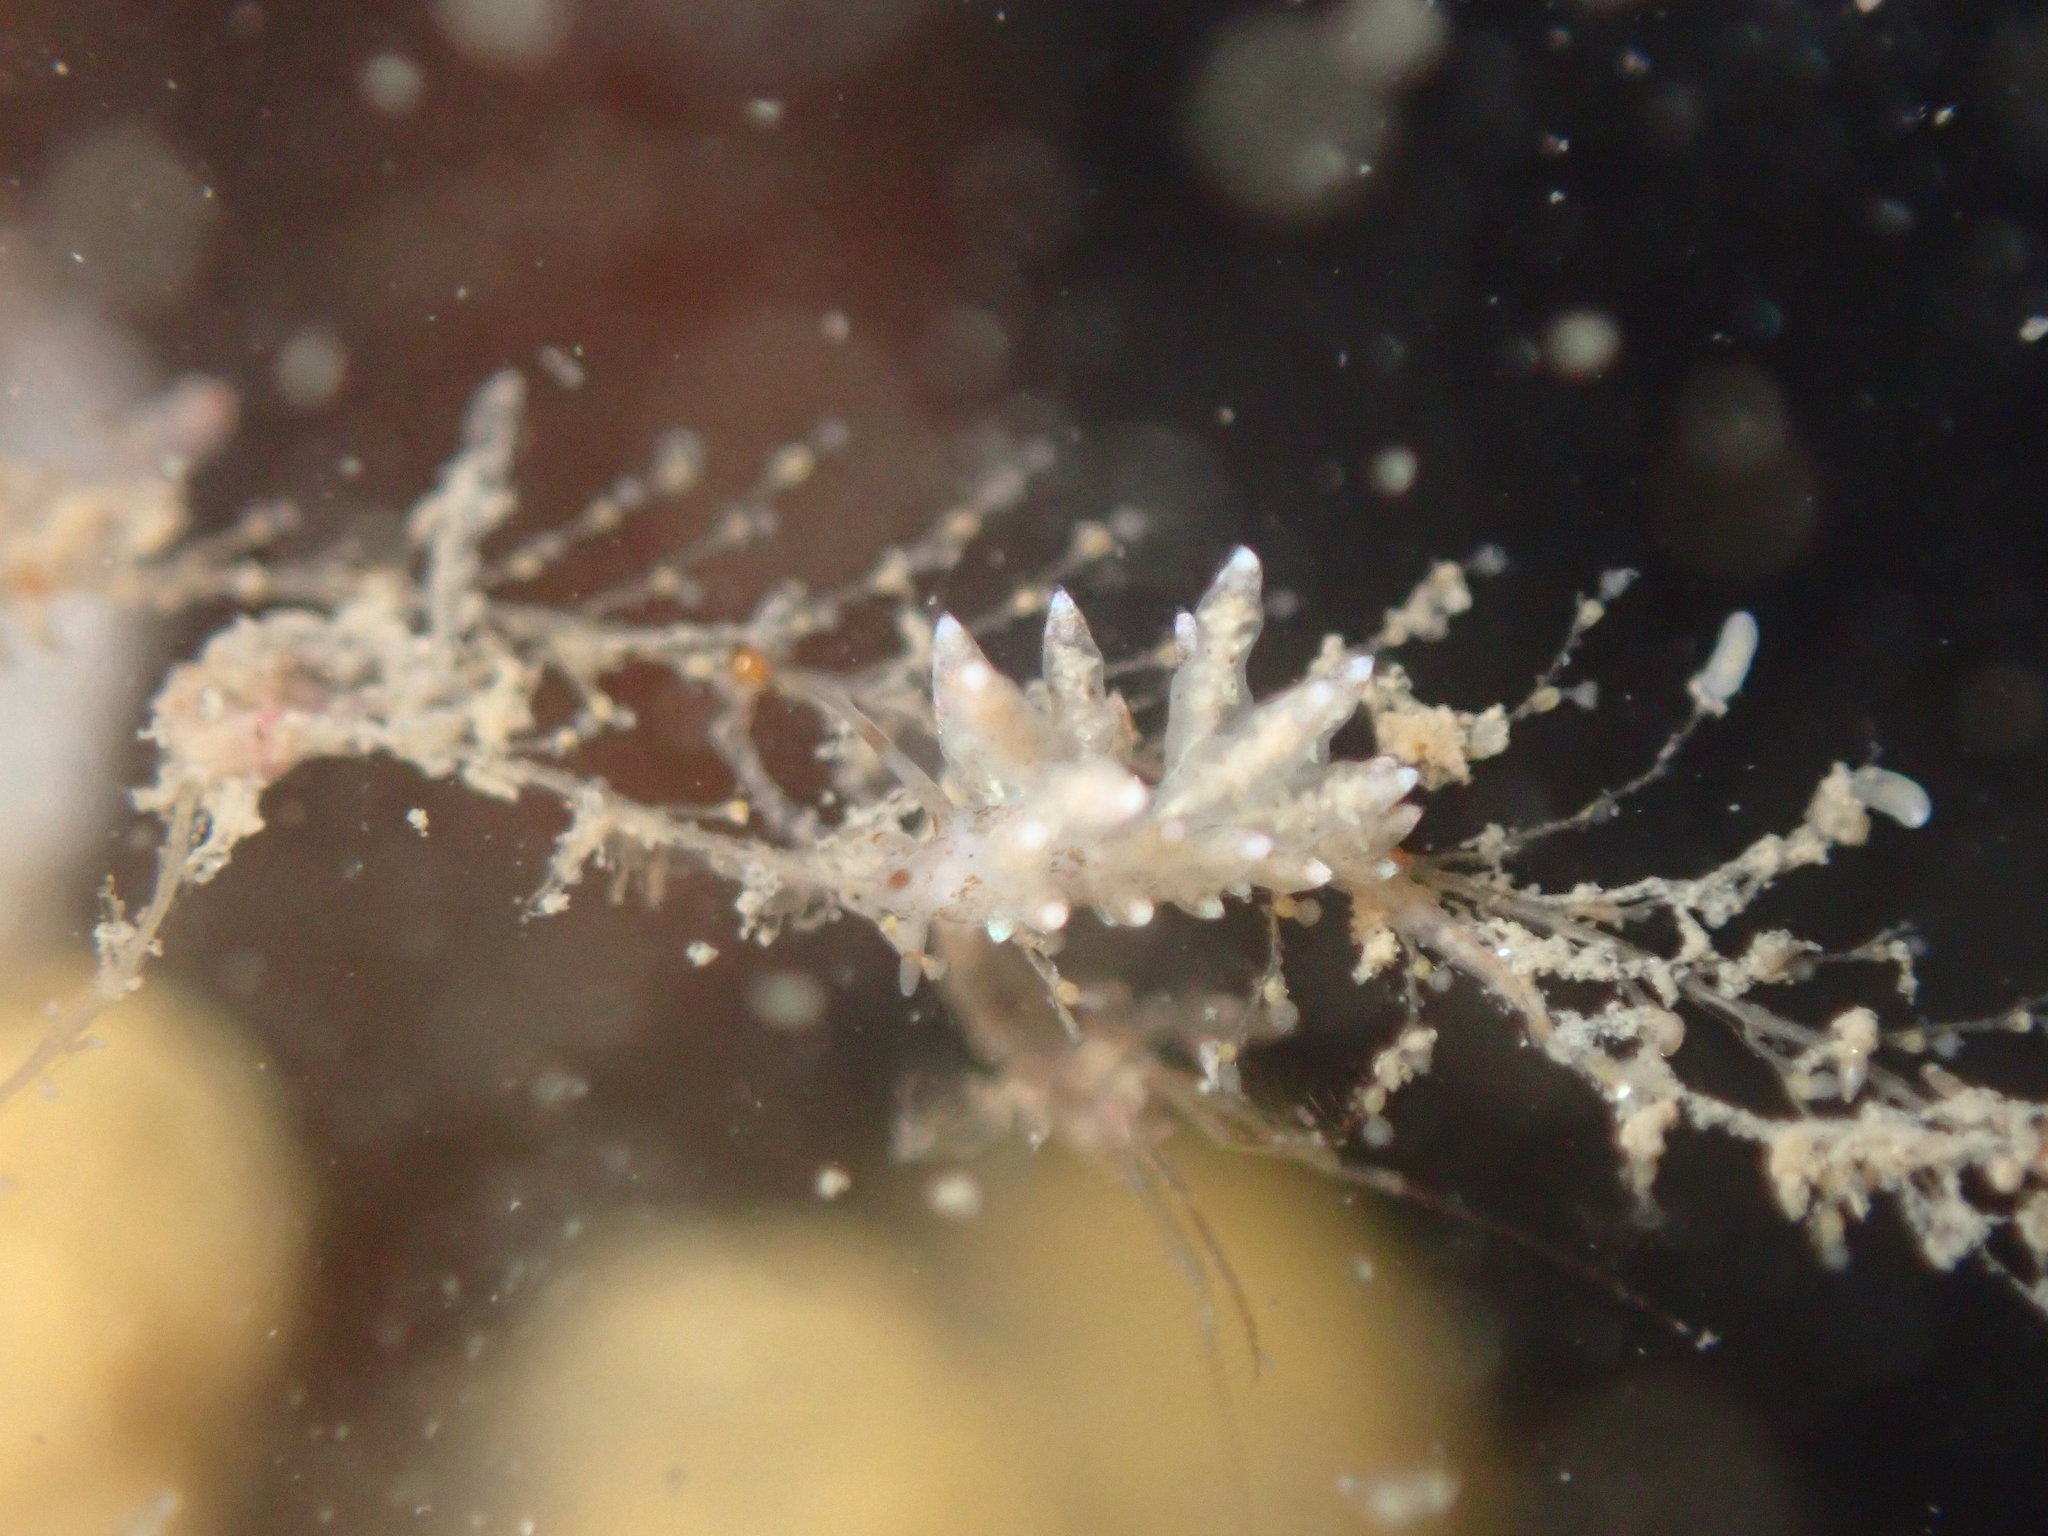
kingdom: Animalia
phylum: Mollusca
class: Gastropoda
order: Nudibranchia
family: Eubranchidae
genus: Eubranchus
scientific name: Eubranchus rustyus
